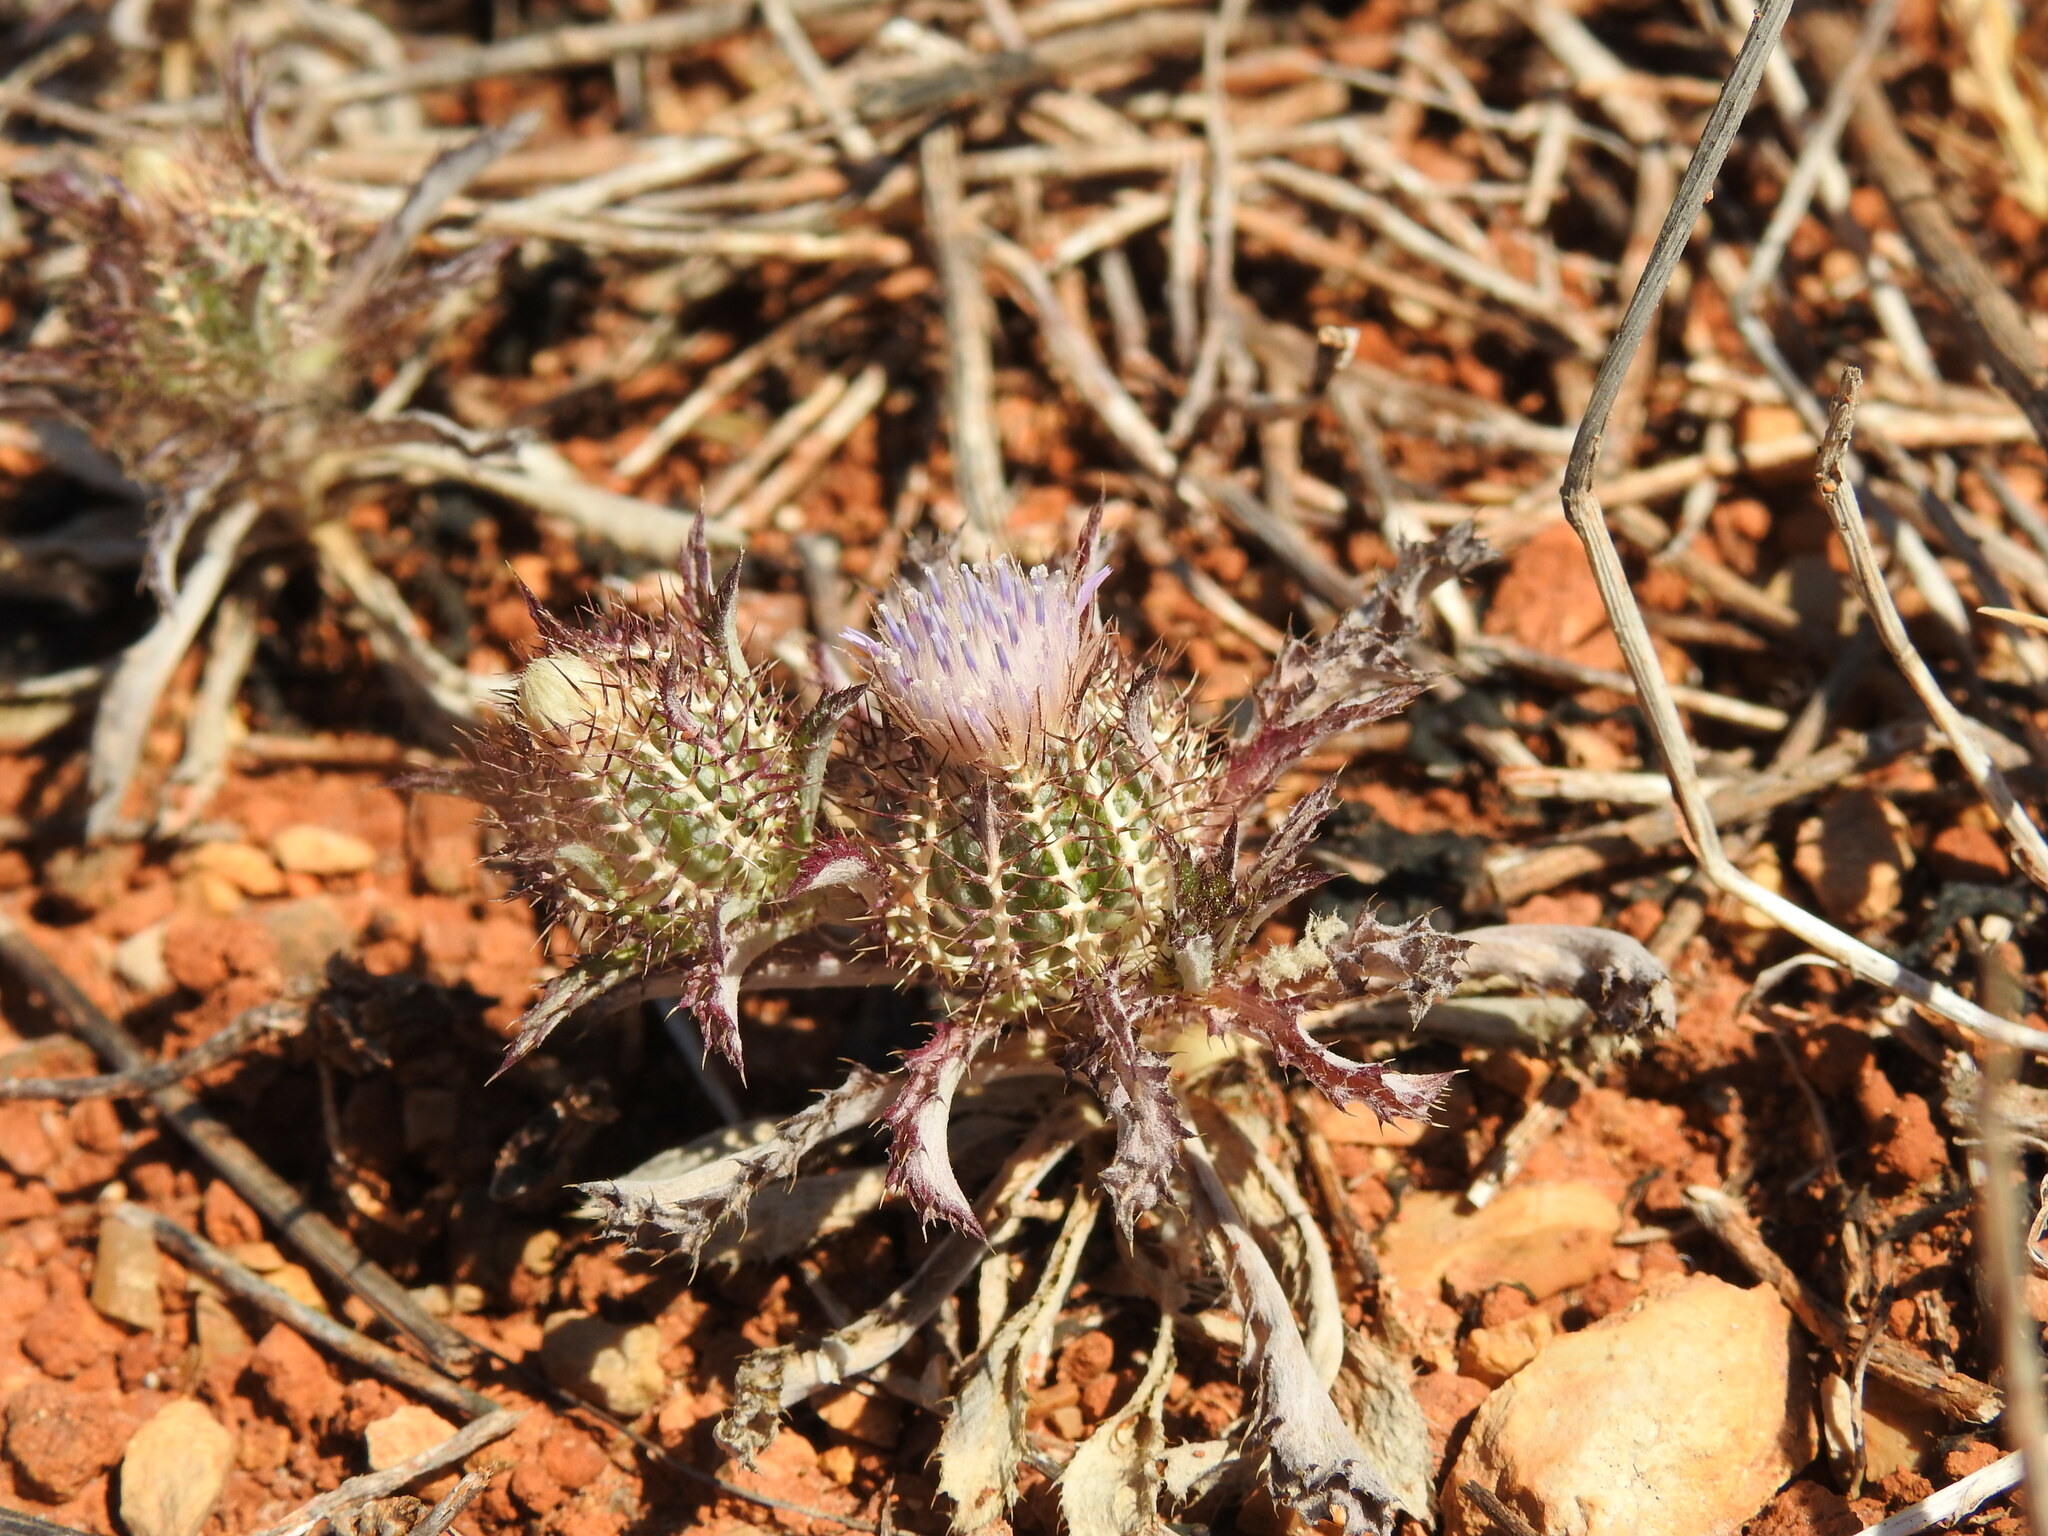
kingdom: Plantae
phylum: Tracheophyta
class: Magnoliopsida
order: Asterales
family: Asteraceae
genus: Atractylis
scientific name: Atractylis cancellata
